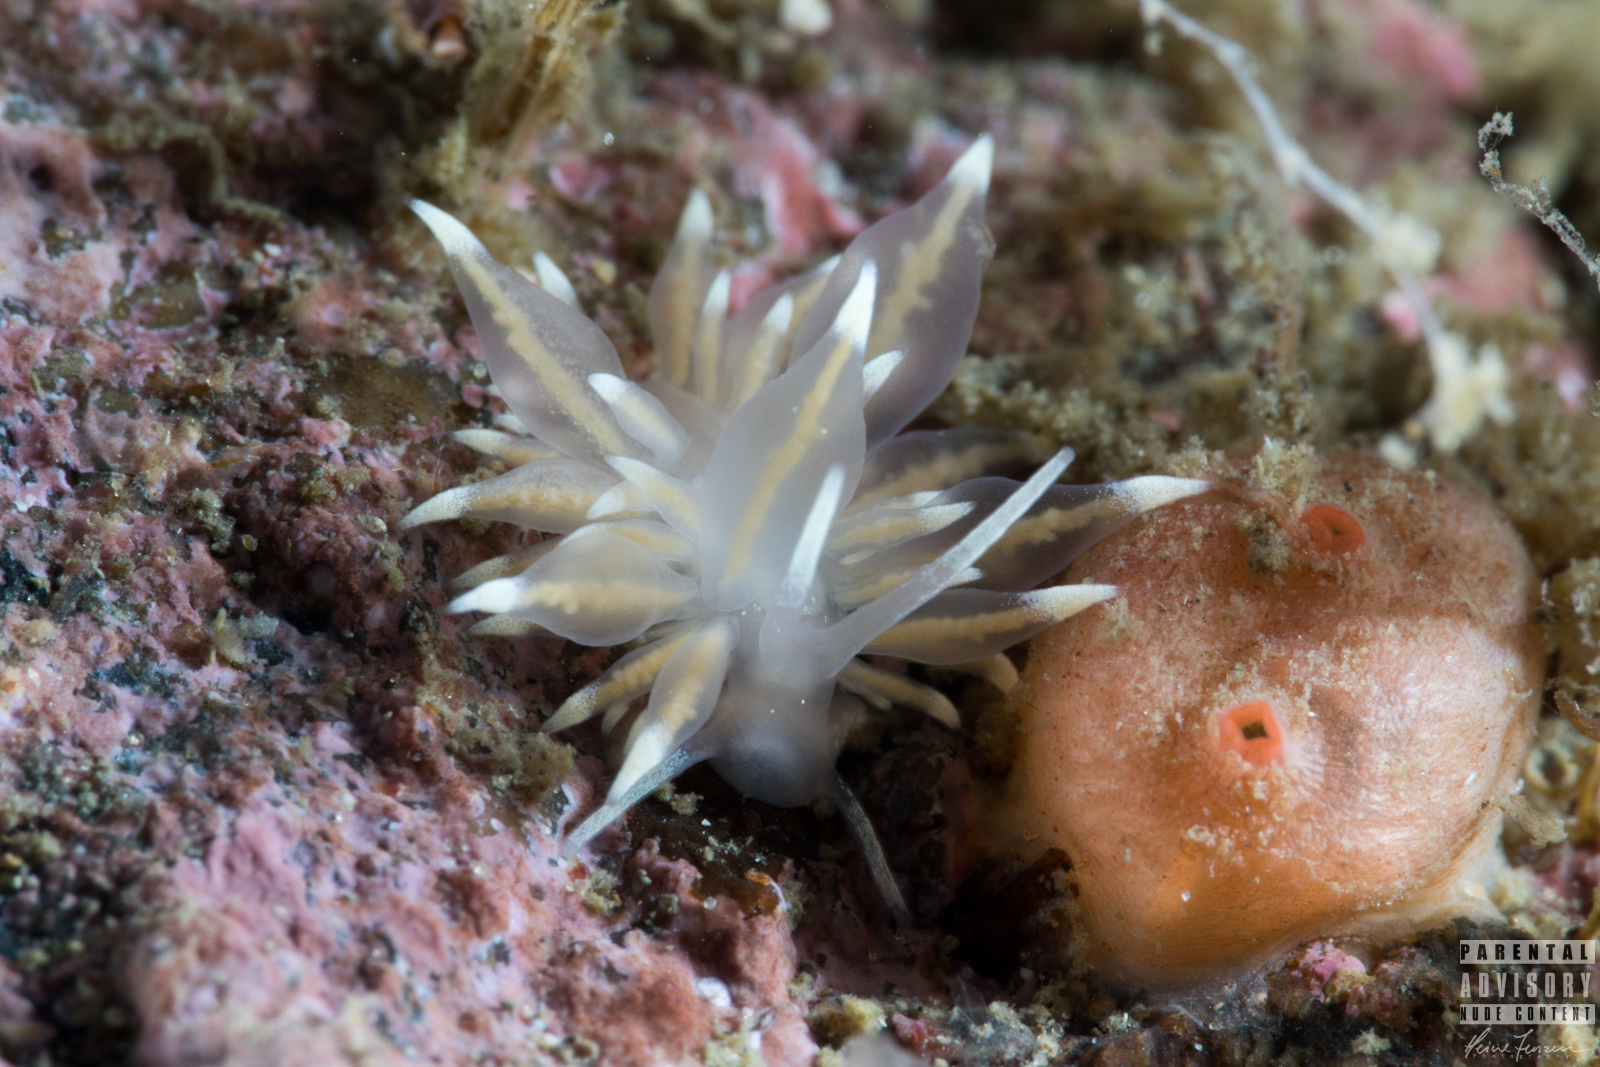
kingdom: Animalia
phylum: Mollusca
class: Gastropoda
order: Nudibranchia
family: Eubranchidae
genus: Amphorina
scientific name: Amphorina linensis
